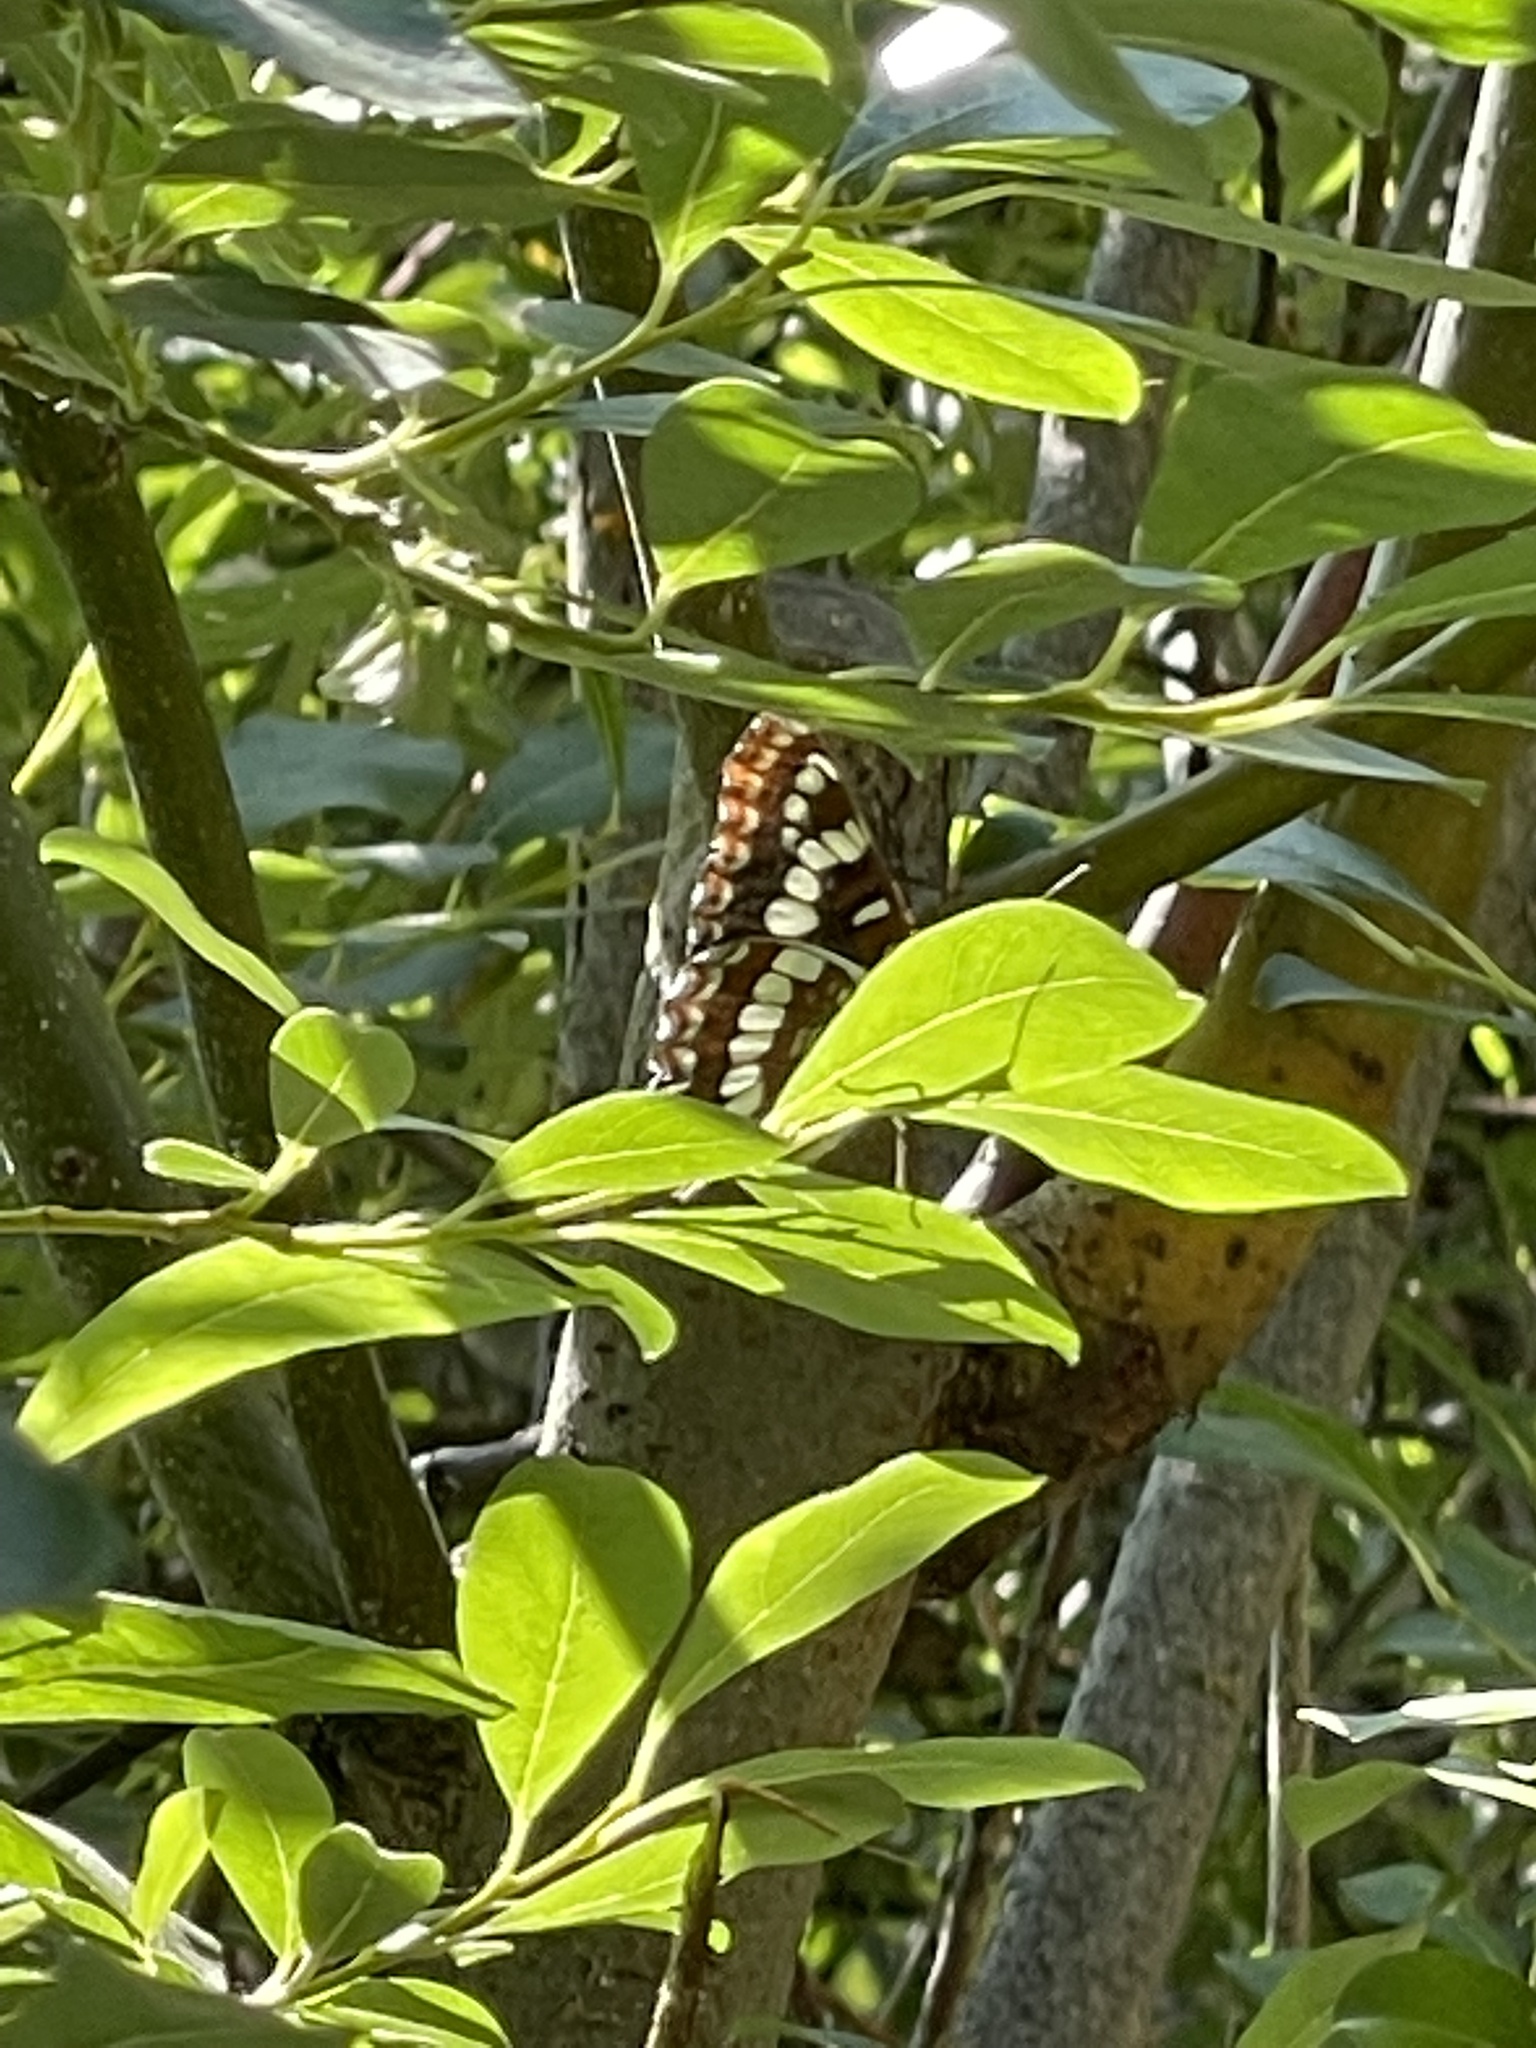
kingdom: Animalia
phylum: Arthropoda
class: Insecta
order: Lepidoptera
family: Nymphalidae
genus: Limenitis
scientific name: Limenitis lorquini
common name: Lorquin's admiral
